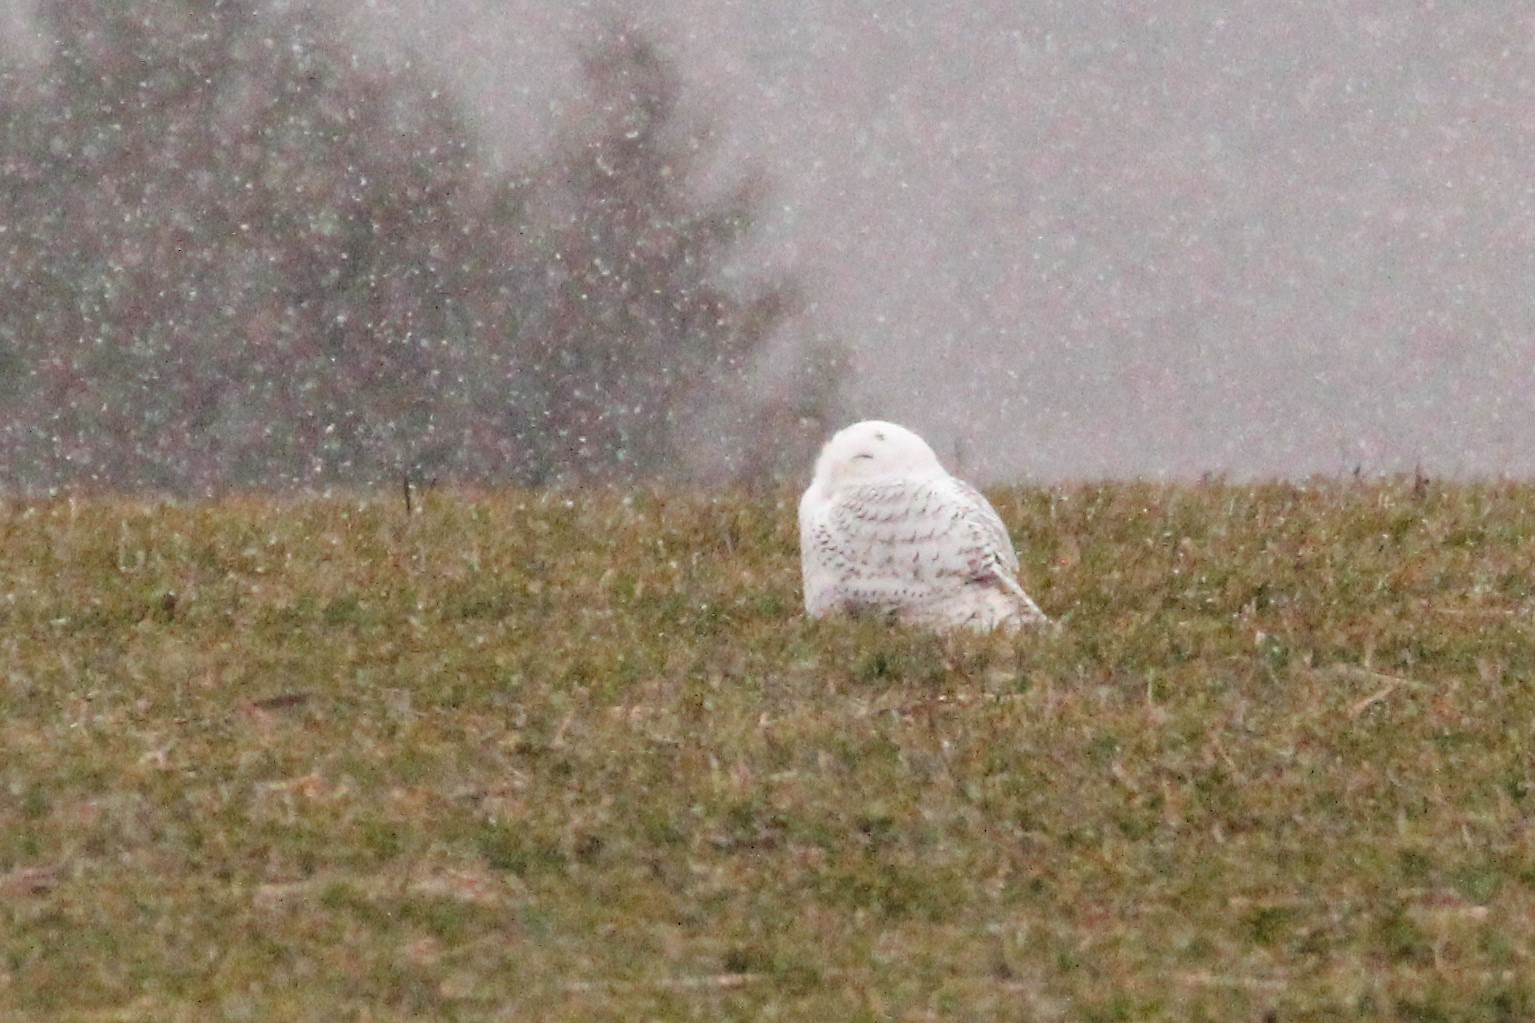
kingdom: Animalia
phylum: Chordata
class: Aves
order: Strigiformes
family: Strigidae
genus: Bubo
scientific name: Bubo scandiacus
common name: Snowy owl
